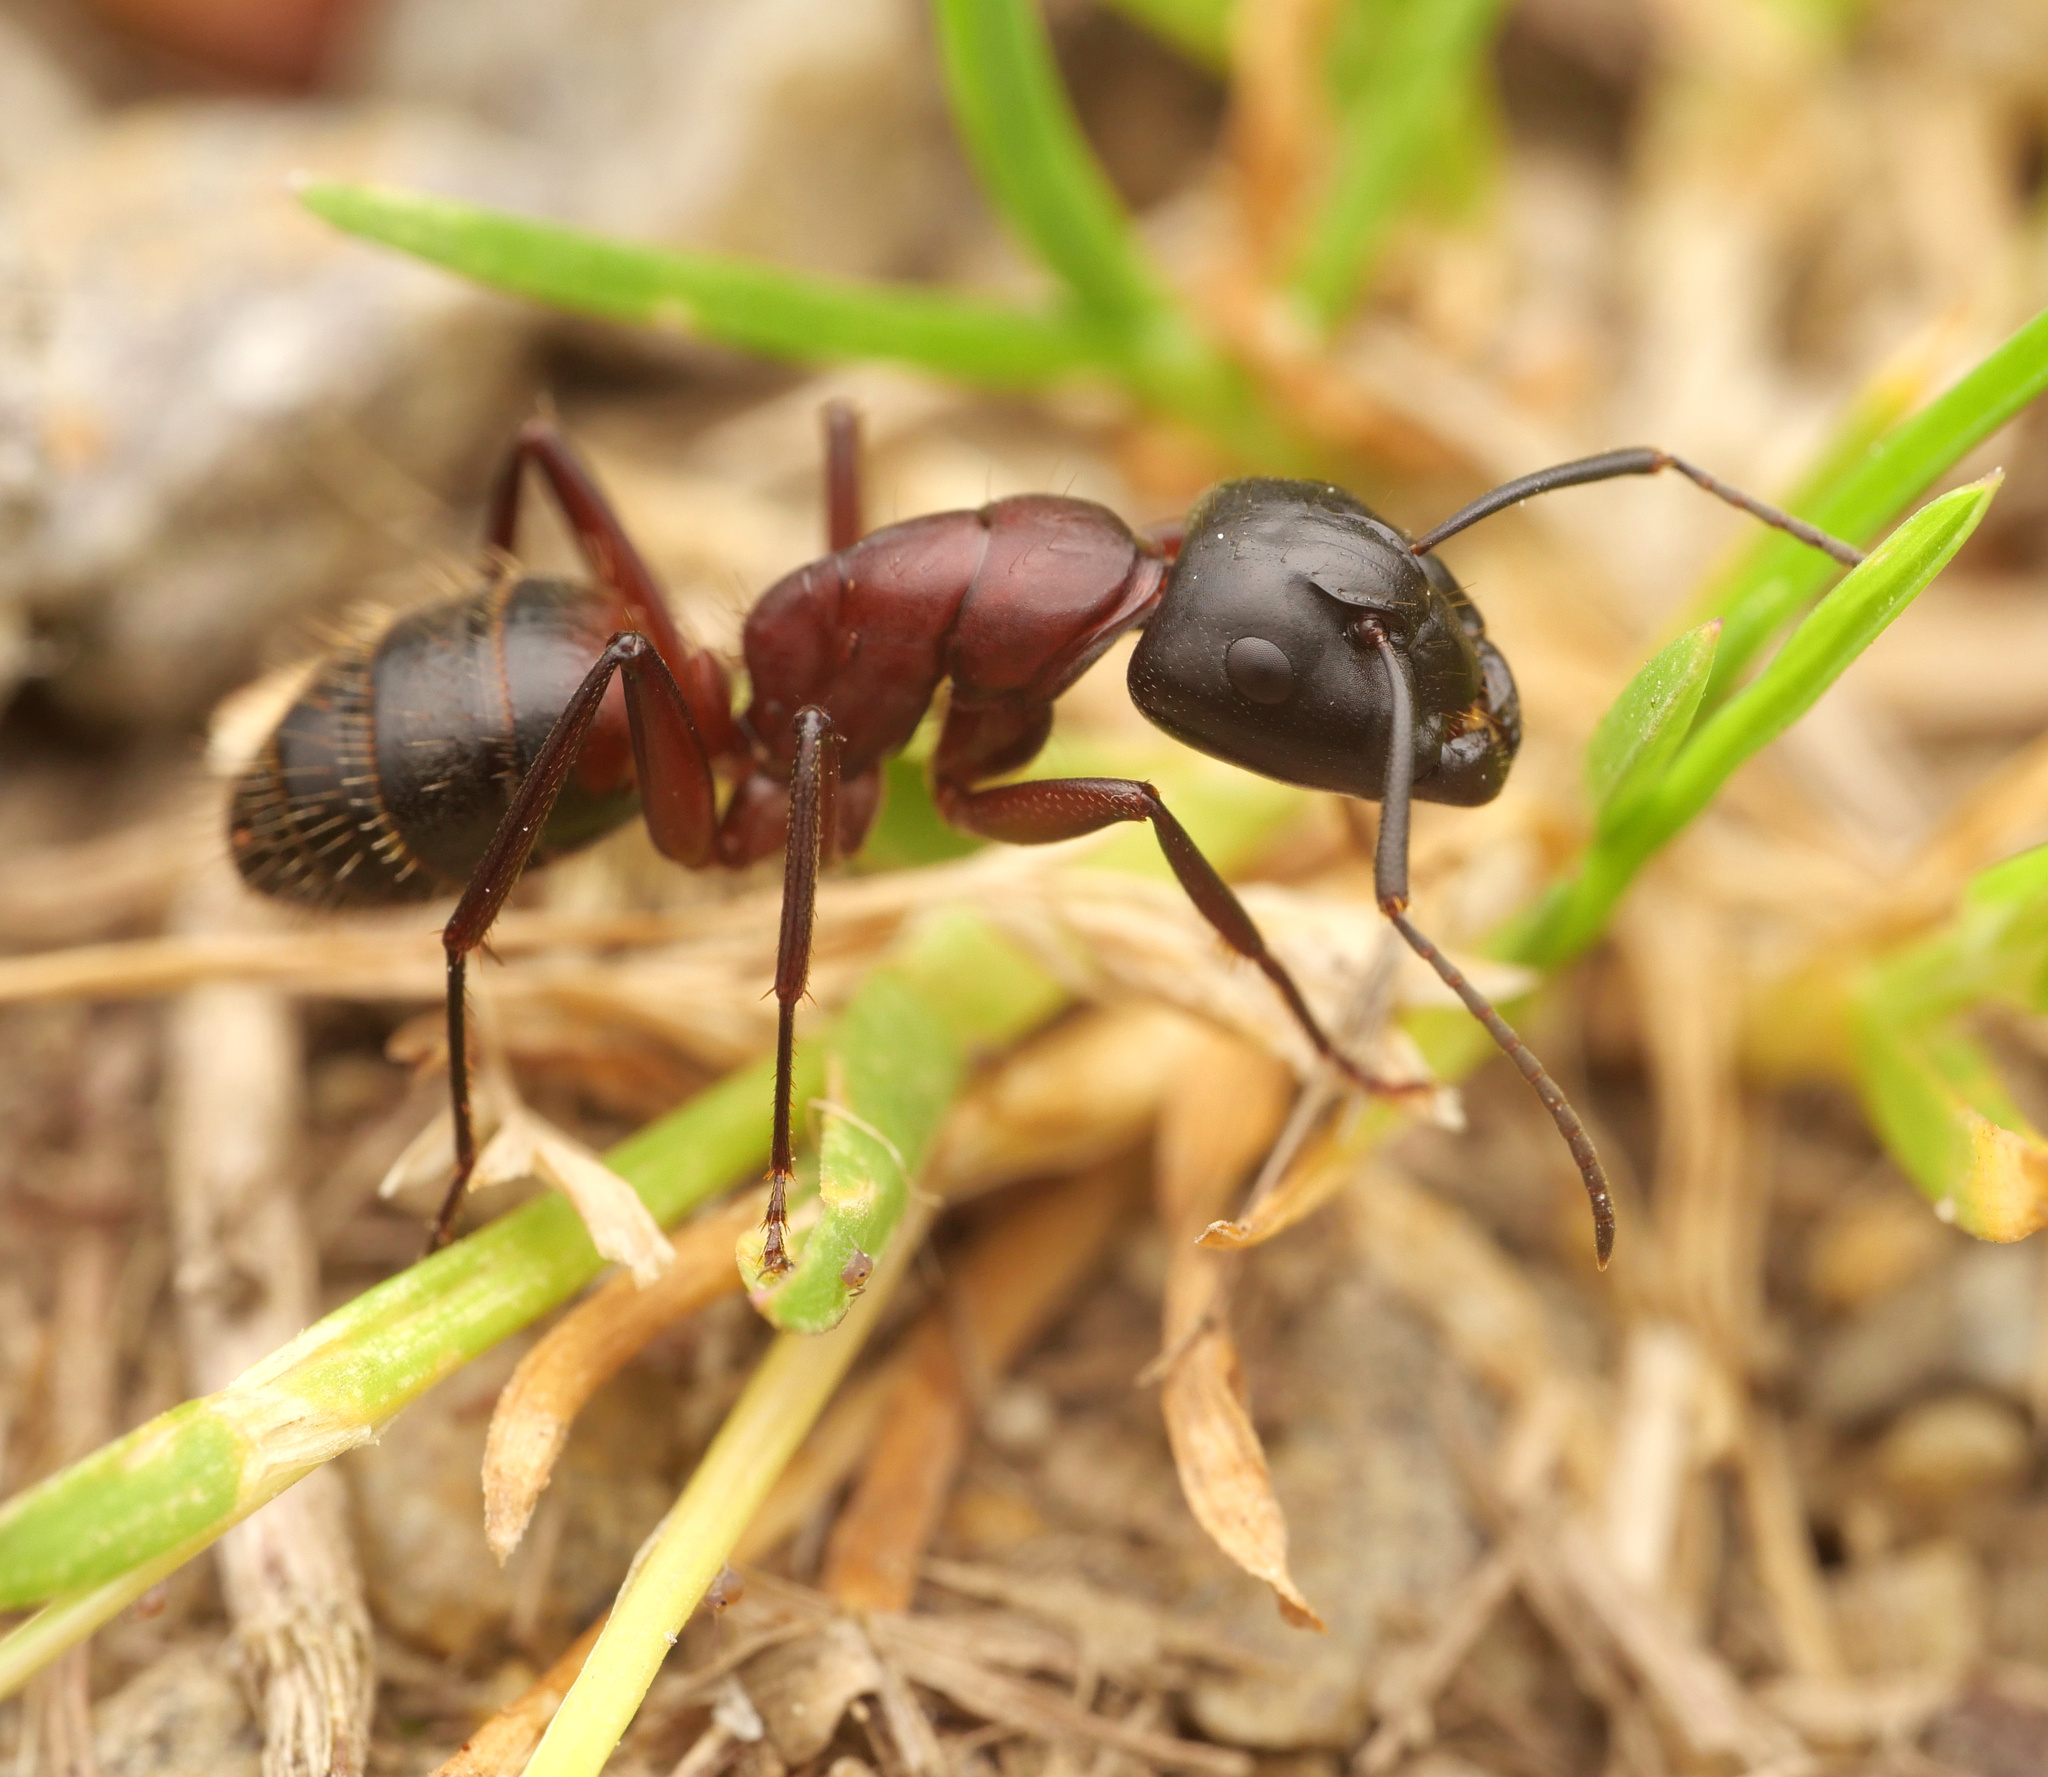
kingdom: Animalia
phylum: Arthropoda
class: Insecta
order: Hymenoptera
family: Formicidae
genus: Camponotus
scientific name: Camponotus ligniperdus
